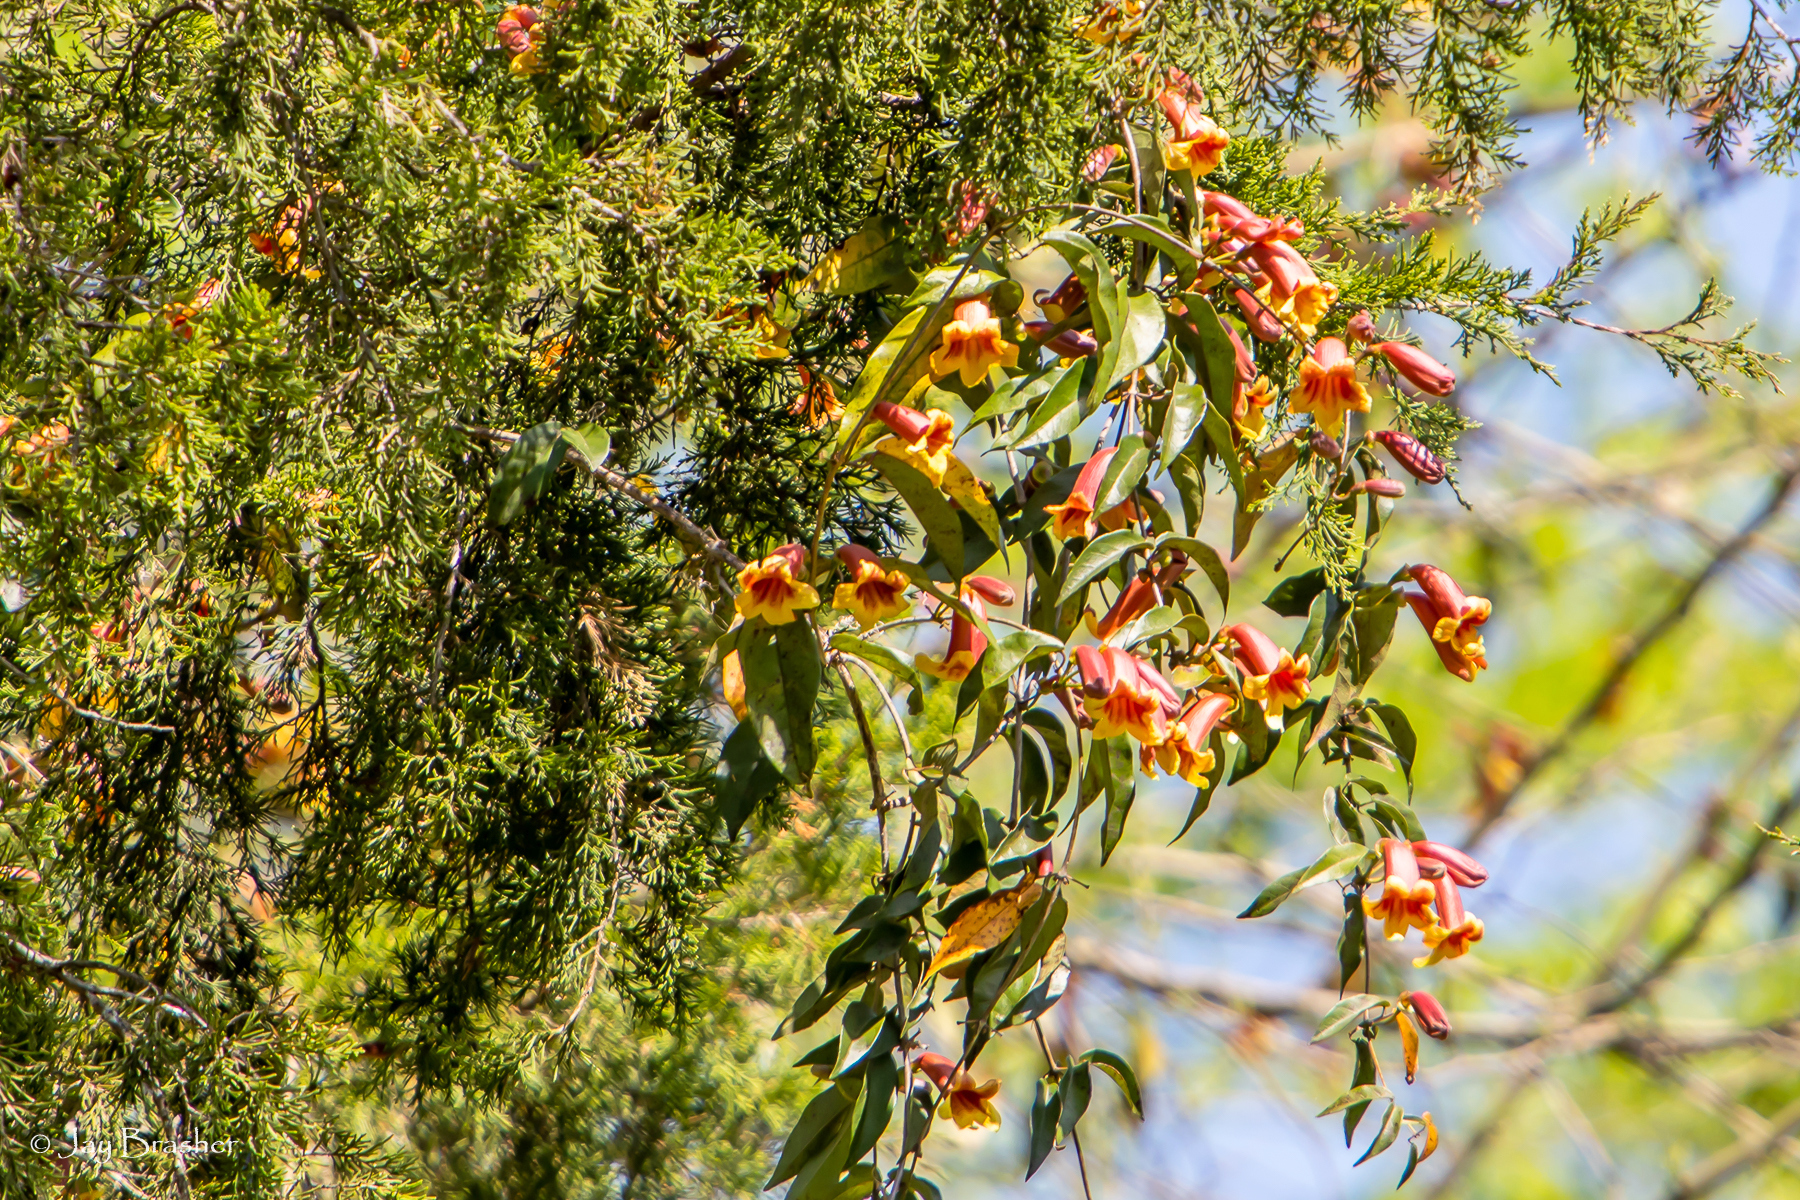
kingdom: Plantae
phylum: Tracheophyta
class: Magnoliopsida
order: Lamiales
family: Bignoniaceae
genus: Bignonia
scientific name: Bignonia capreolata
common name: Crossvine
